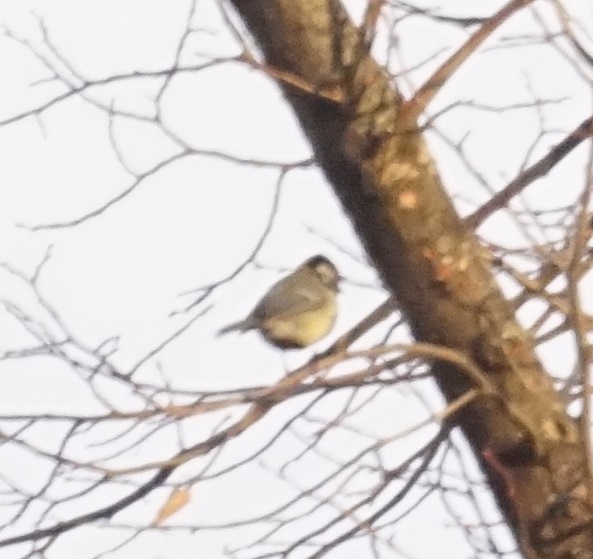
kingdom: Animalia
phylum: Chordata
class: Aves
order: Passeriformes
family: Paridae
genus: Parus
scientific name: Parus major
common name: Great tit
